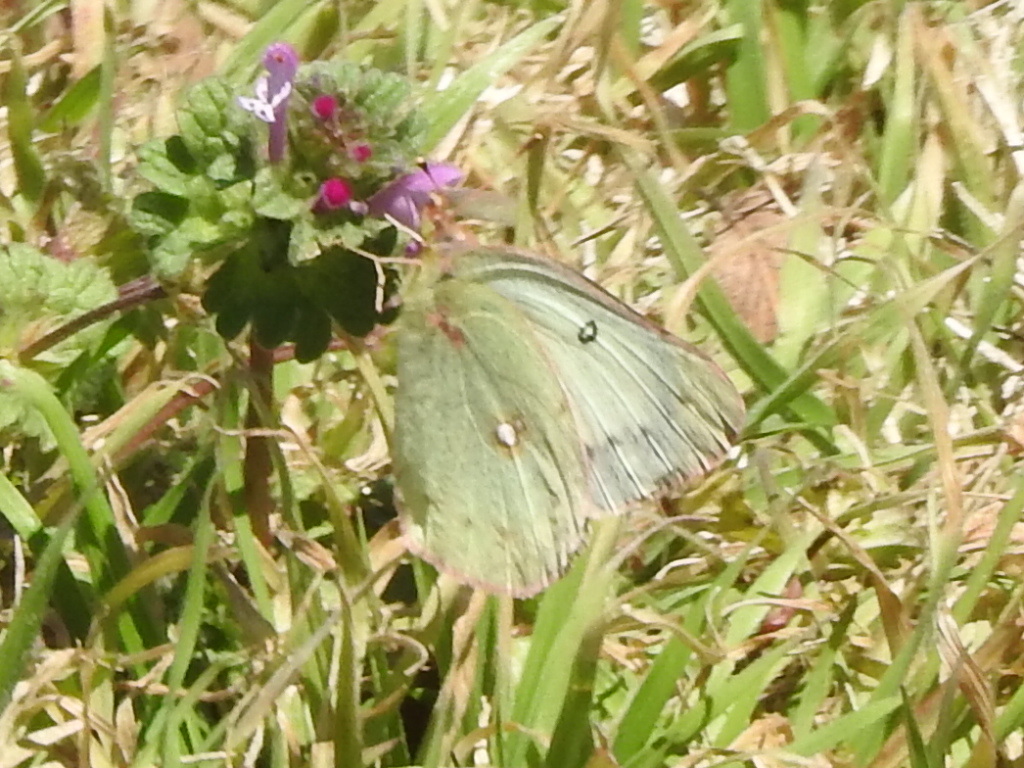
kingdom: Animalia
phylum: Arthropoda
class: Insecta
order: Lepidoptera
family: Pieridae
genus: Colias
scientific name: Colias eurytheme
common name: Alfalfa butterfly
